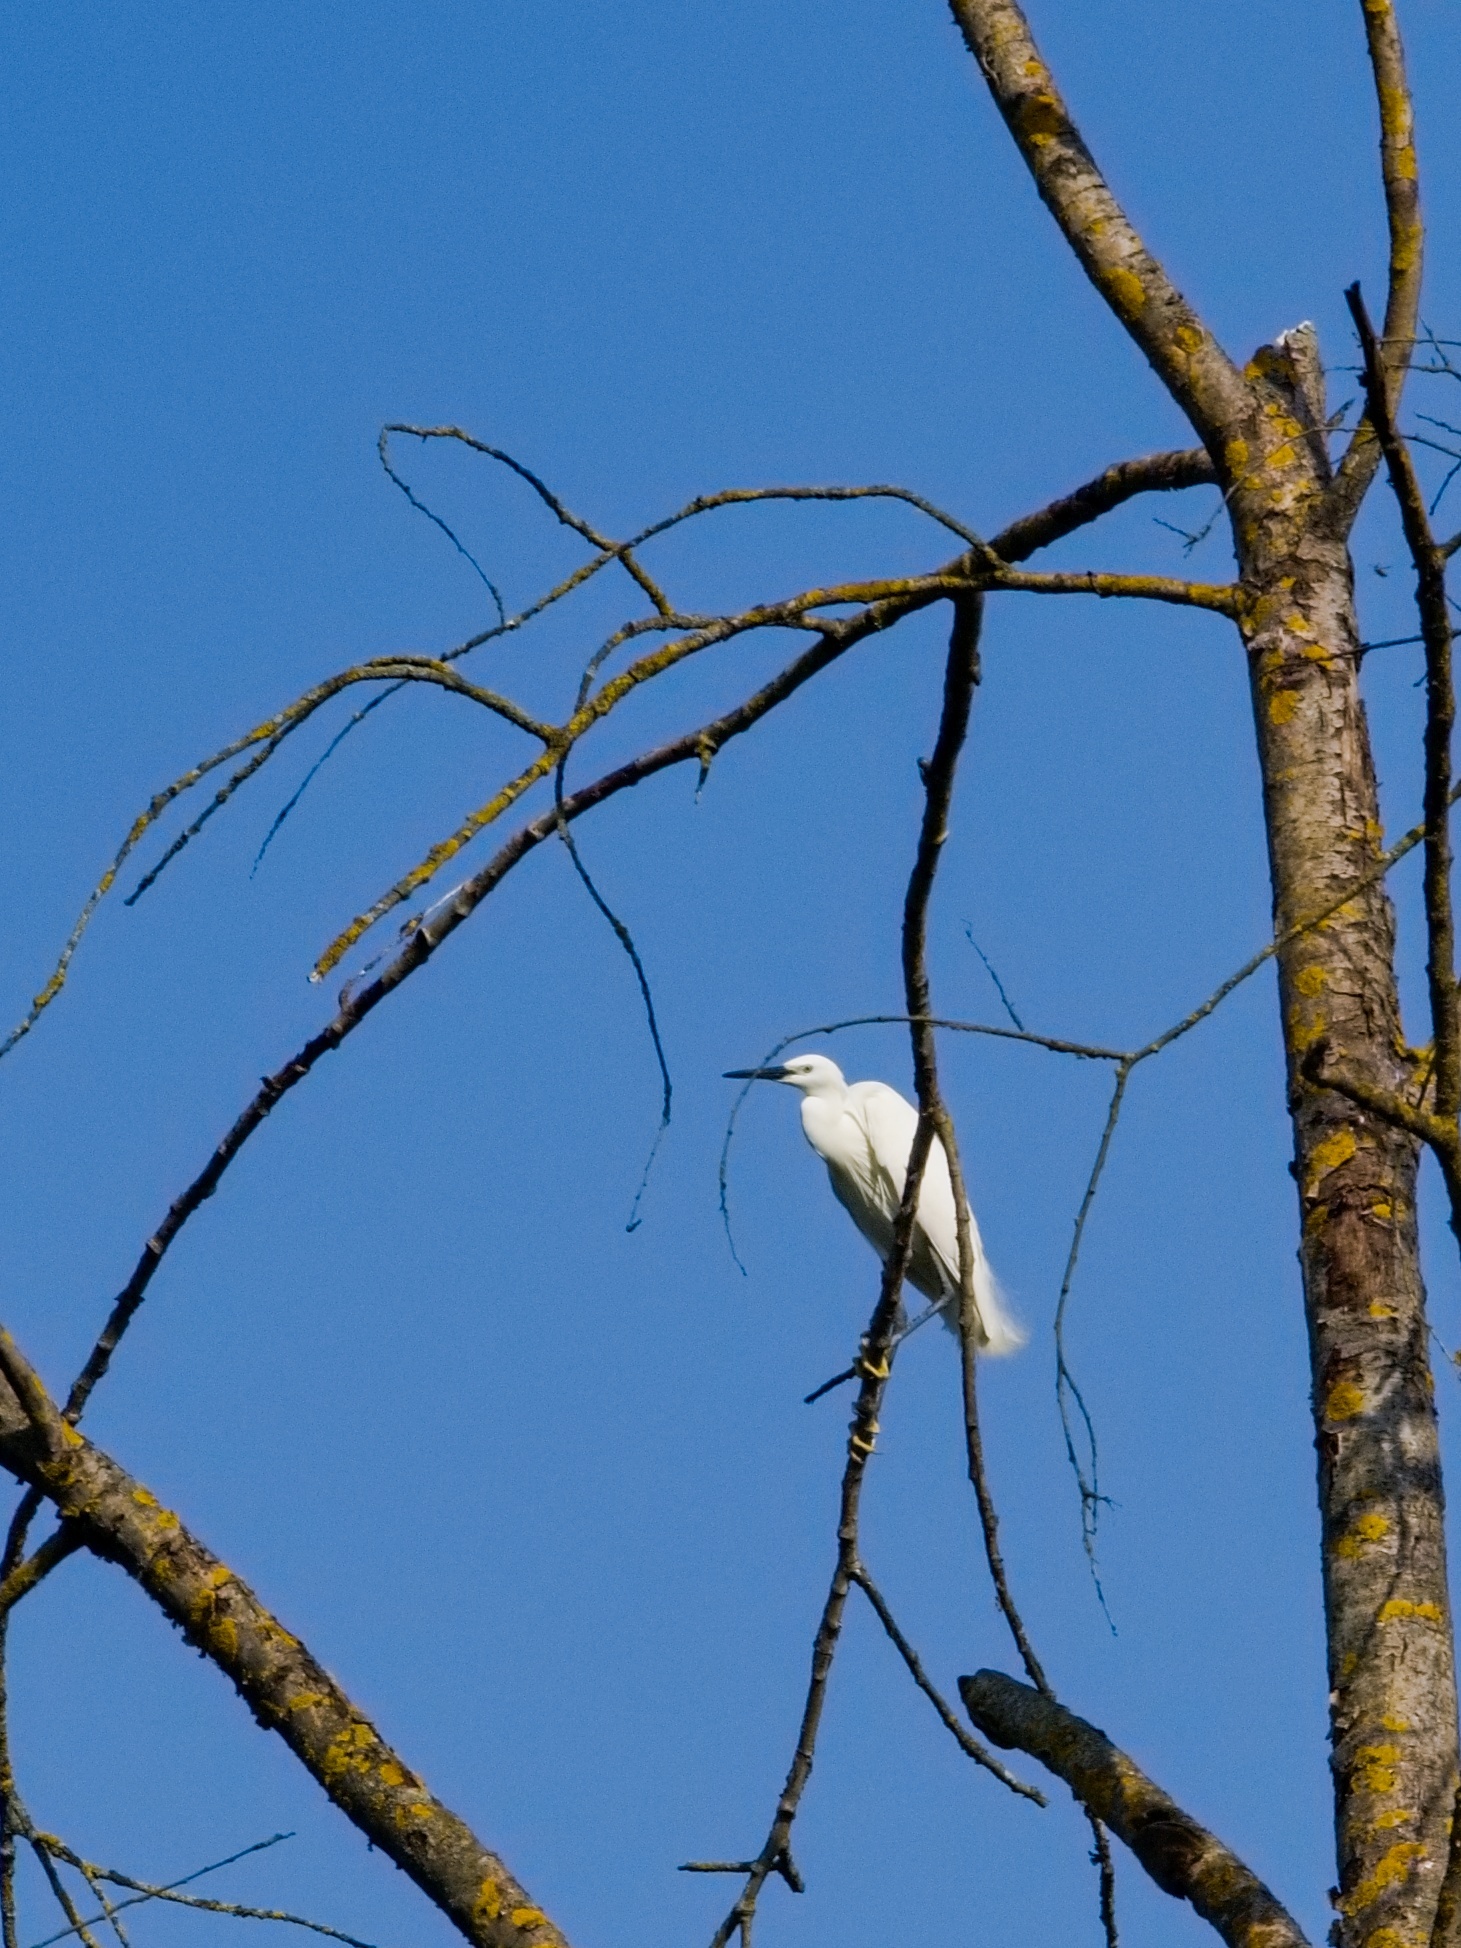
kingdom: Animalia
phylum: Chordata
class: Aves
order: Pelecaniformes
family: Ardeidae
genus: Egretta
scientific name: Egretta garzetta
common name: Little egret
